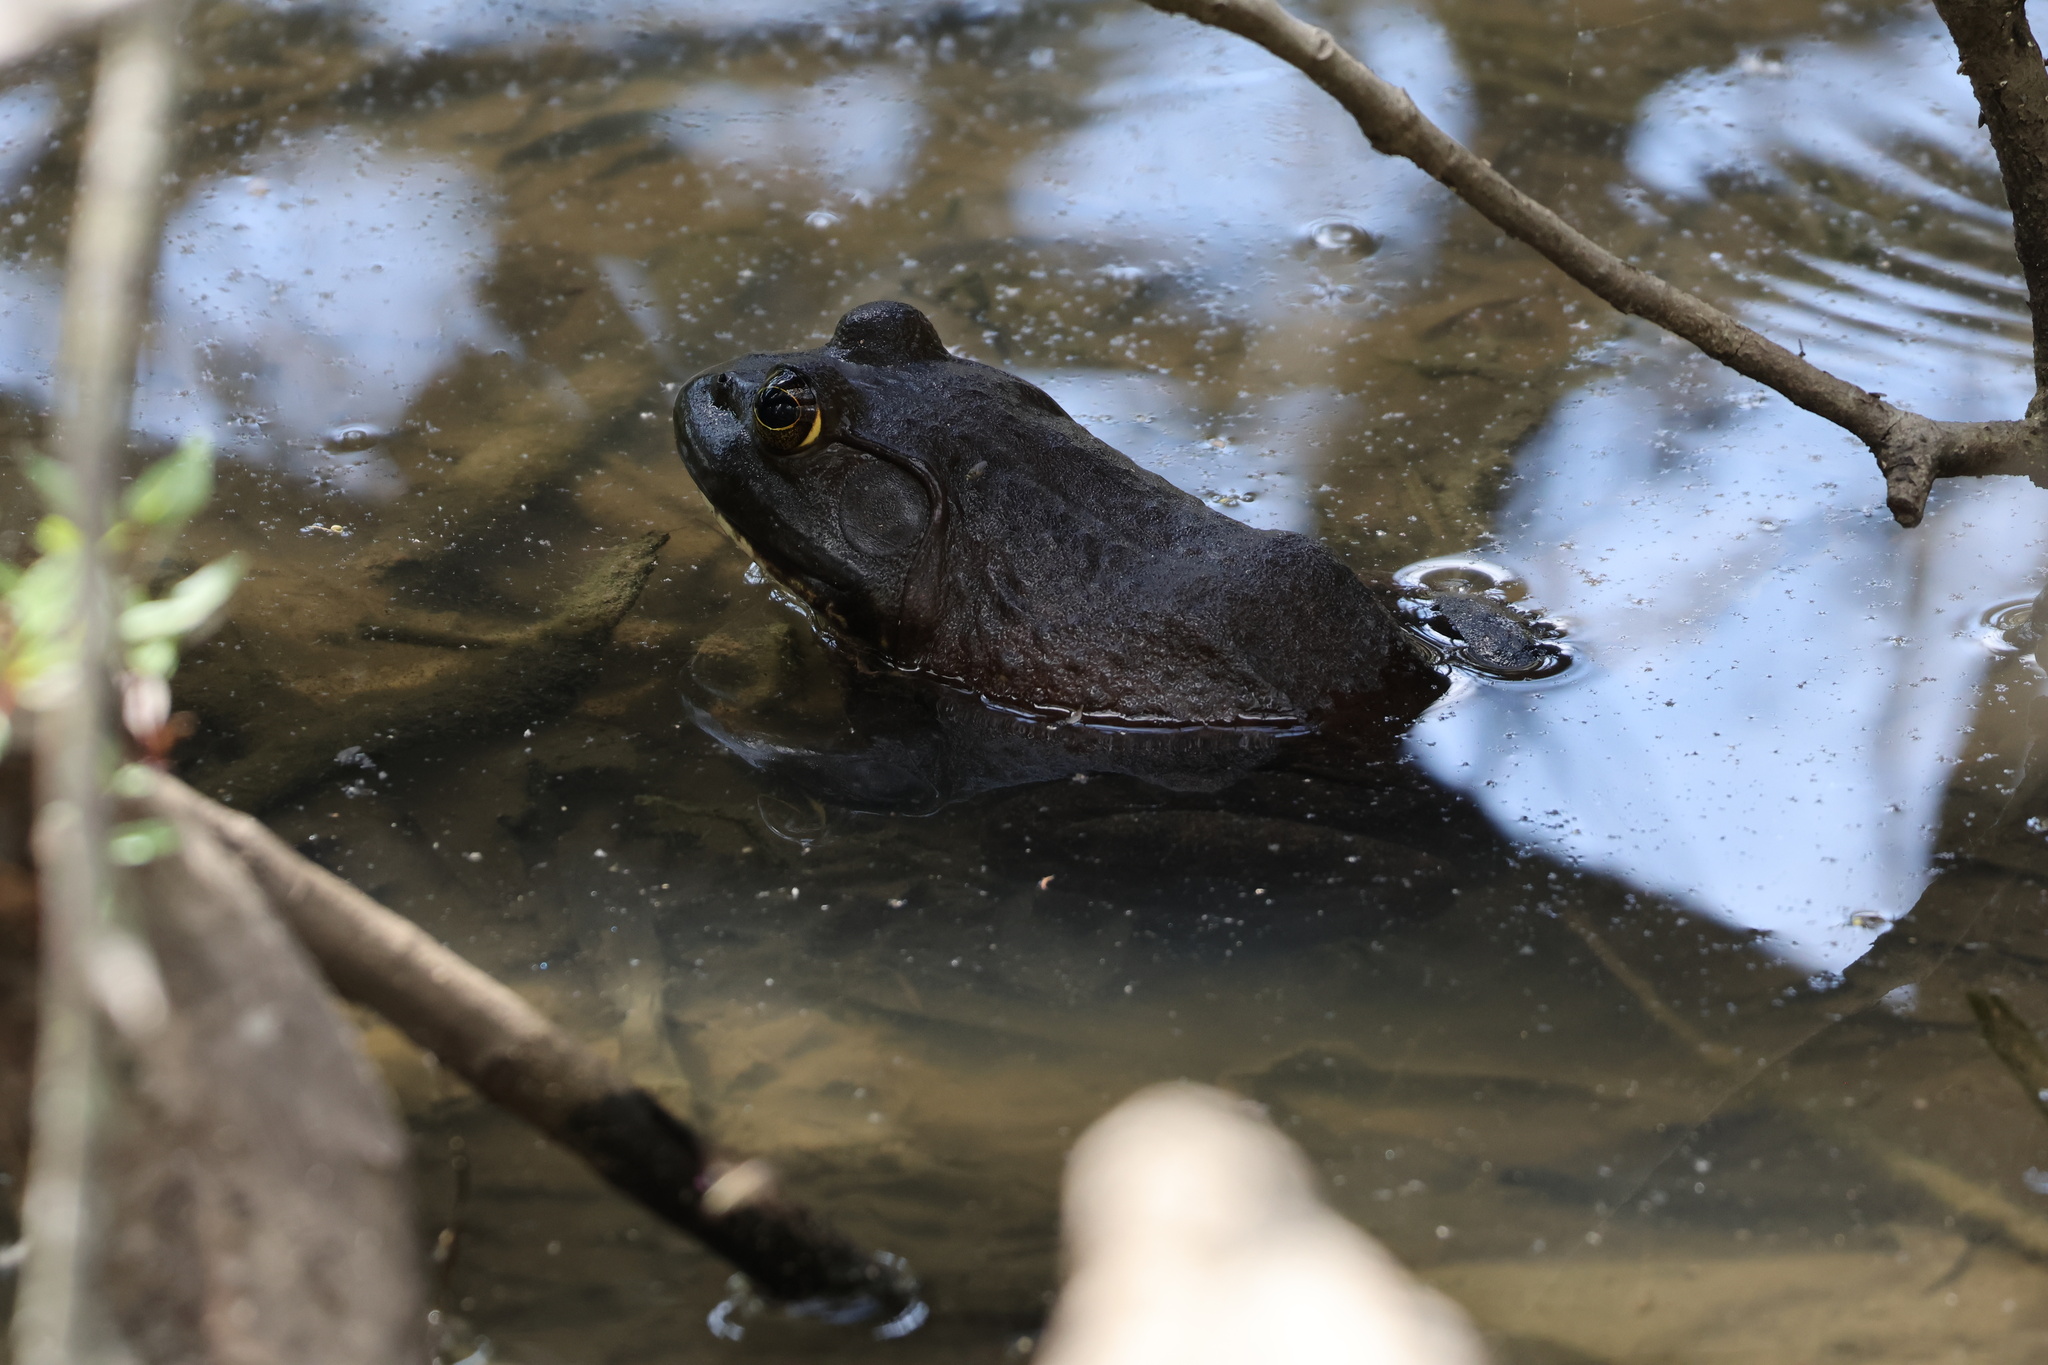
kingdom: Animalia
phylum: Chordata
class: Amphibia
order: Anura
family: Ranidae
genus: Lithobates
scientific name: Lithobates catesbeianus
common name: American bullfrog
